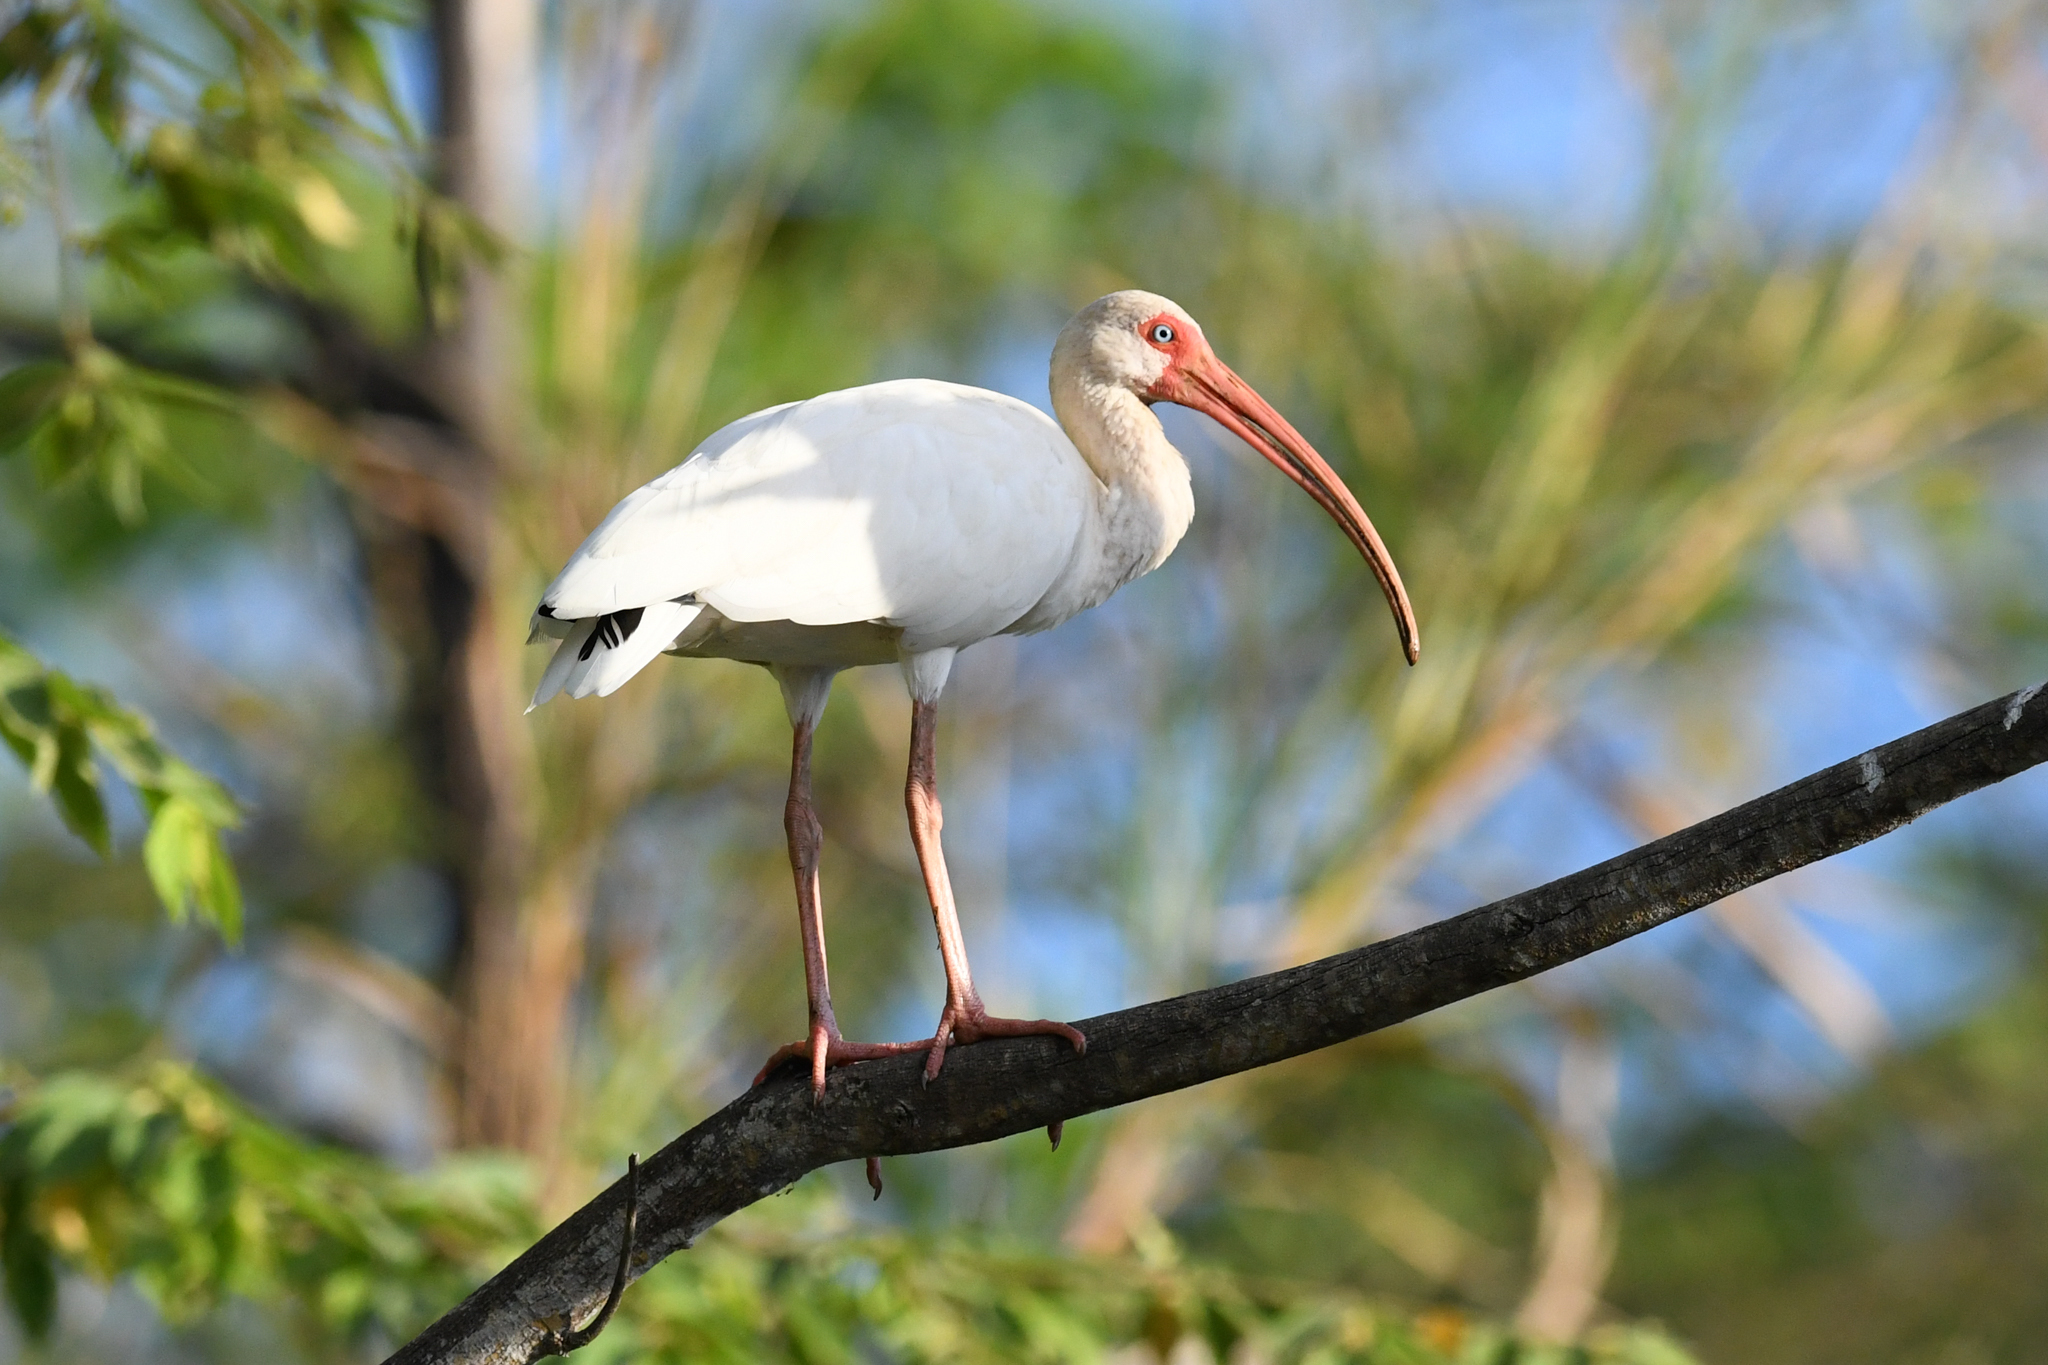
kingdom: Animalia
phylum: Chordata
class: Aves
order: Pelecaniformes
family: Threskiornithidae
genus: Eudocimus
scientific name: Eudocimus albus
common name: White ibis
